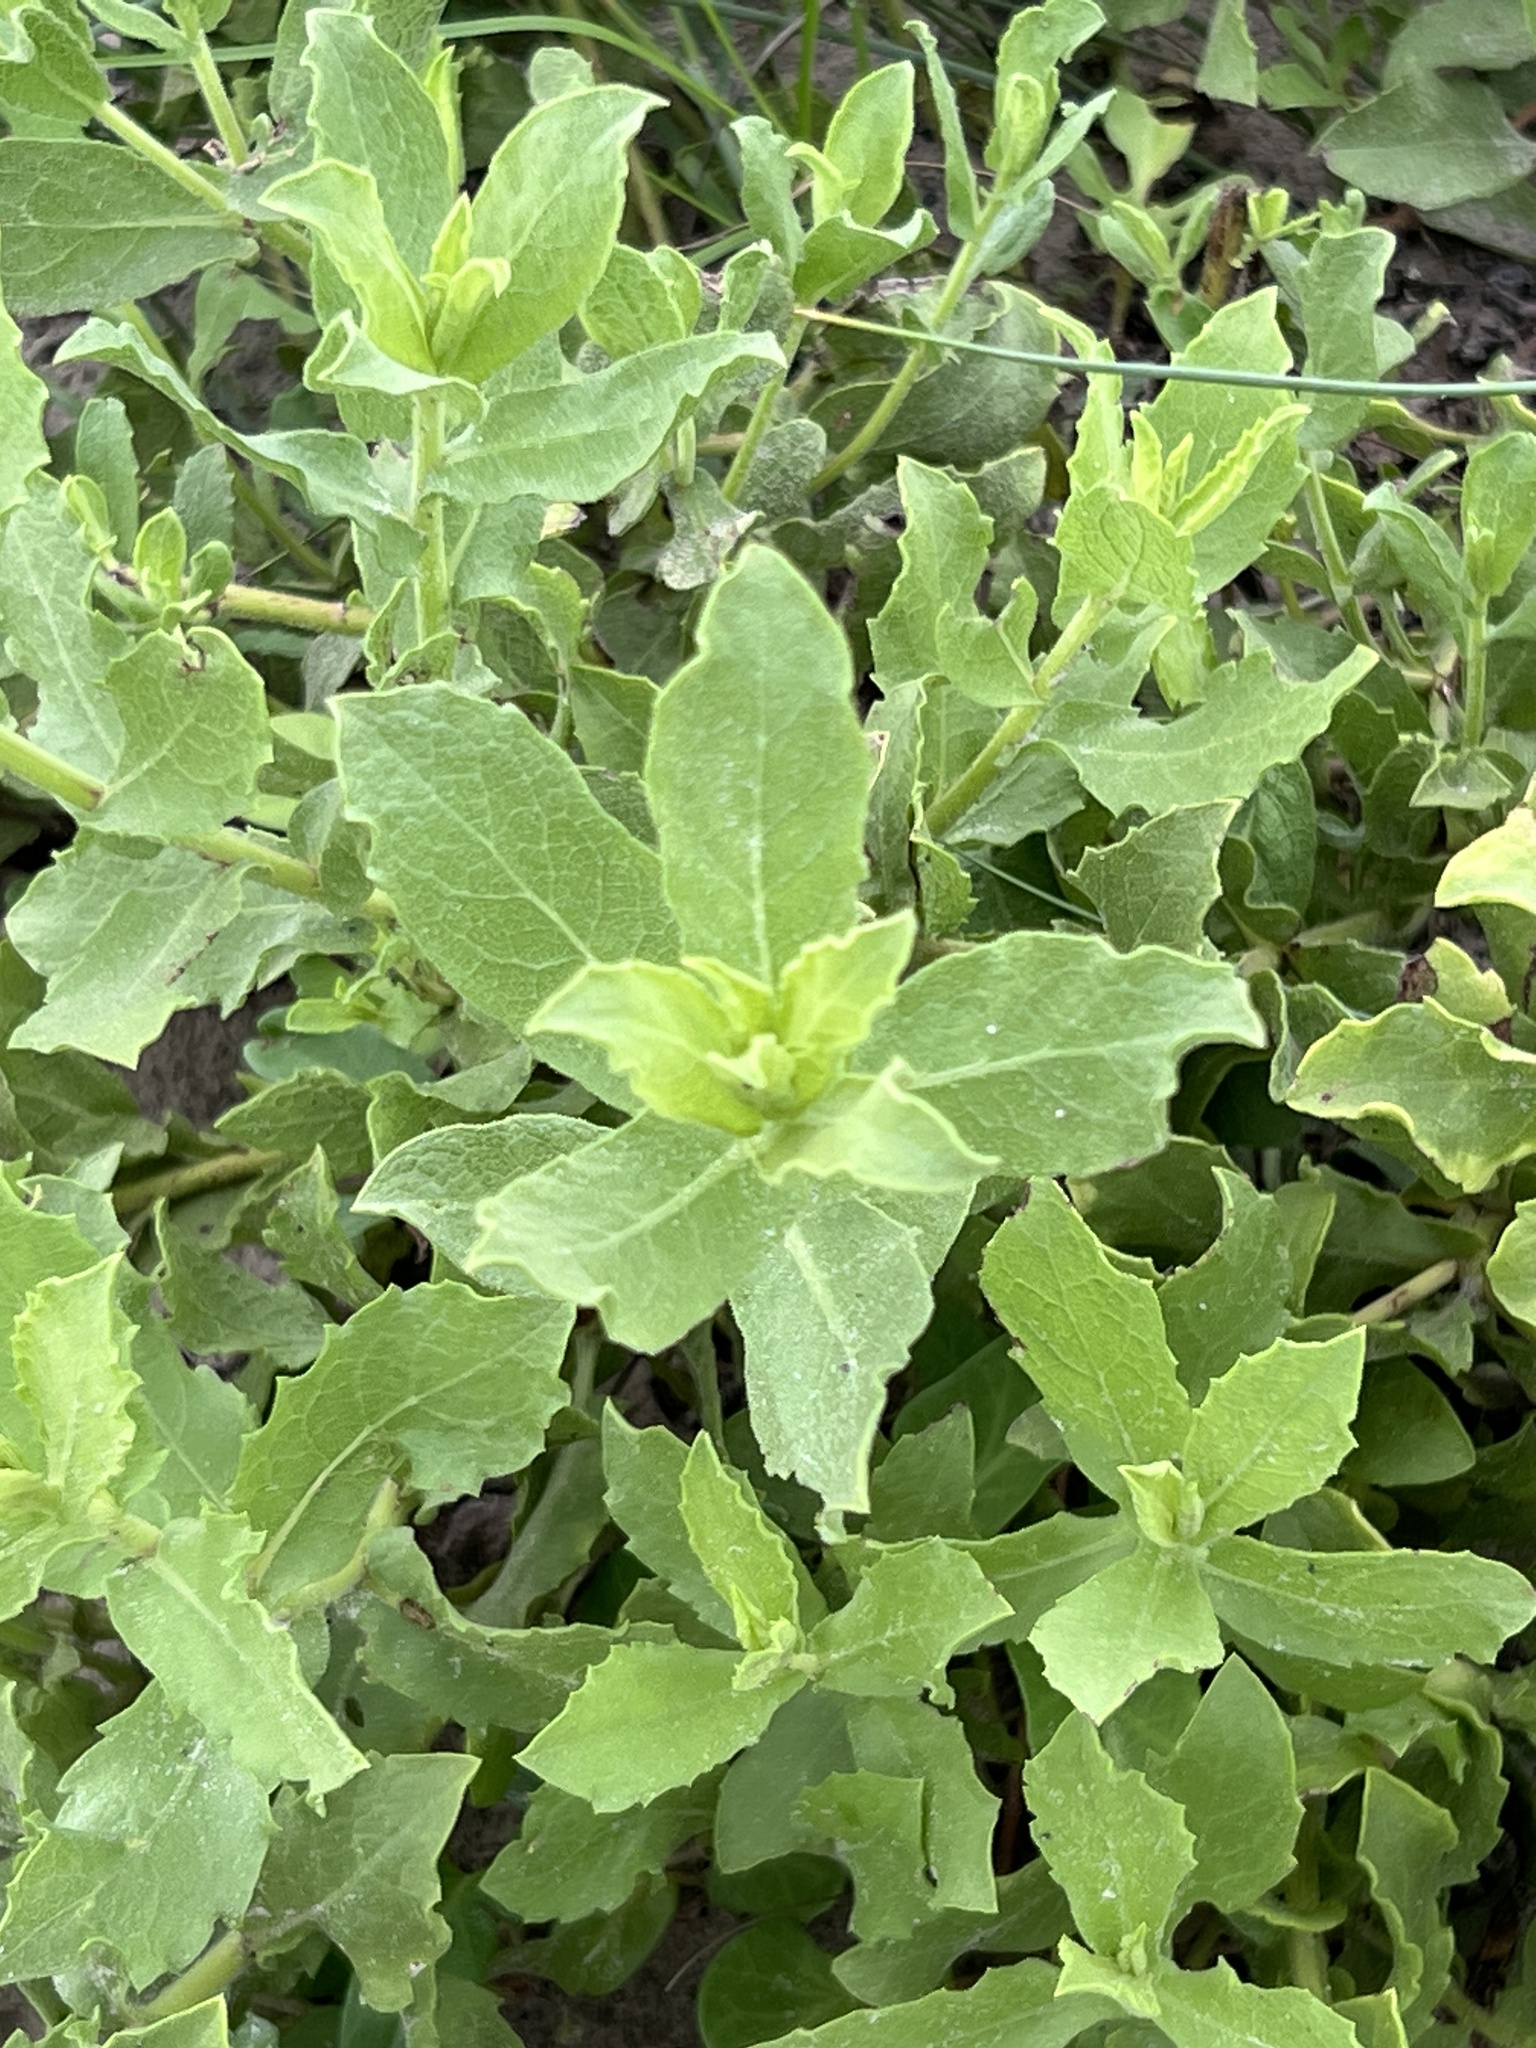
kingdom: Plantae
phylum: Tracheophyta
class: Magnoliopsida
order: Asterales
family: Asteraceae
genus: Rayjacksonia
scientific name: Rayjacksonia phyllocephala
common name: Gulf coast camphor daisy
